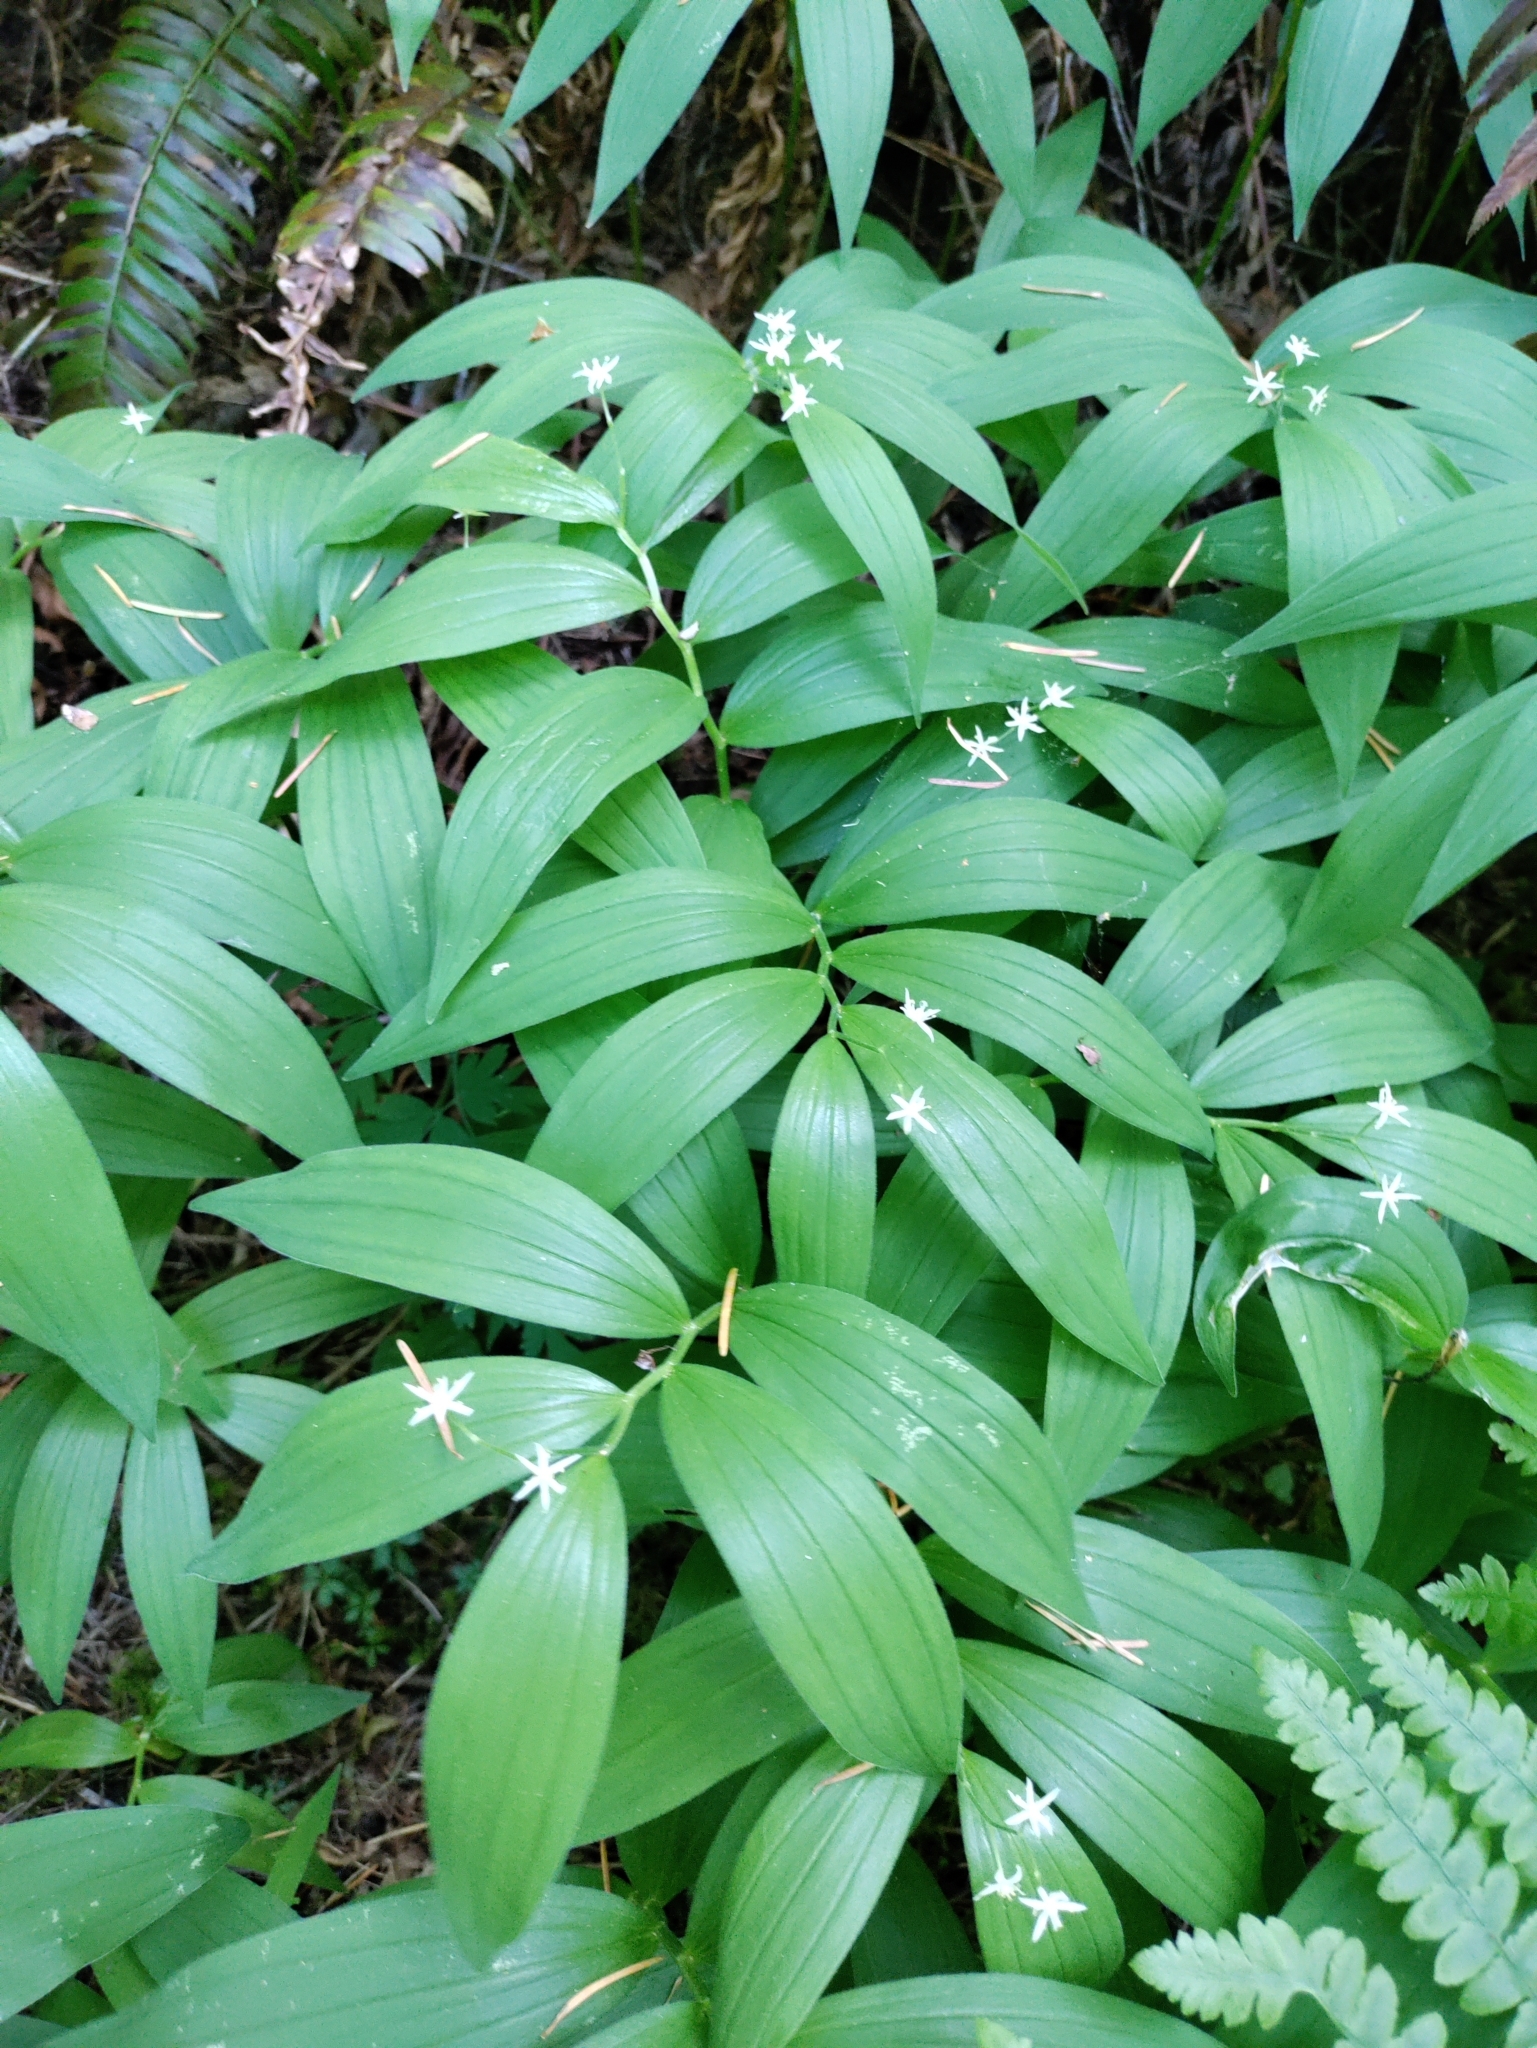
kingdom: Plantae
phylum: Tracheophyta
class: Liliopsida
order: Asparagales
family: Asparagaceae
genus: Maianthemum
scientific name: Maianthemum stellatum
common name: Little false solomon's seal
